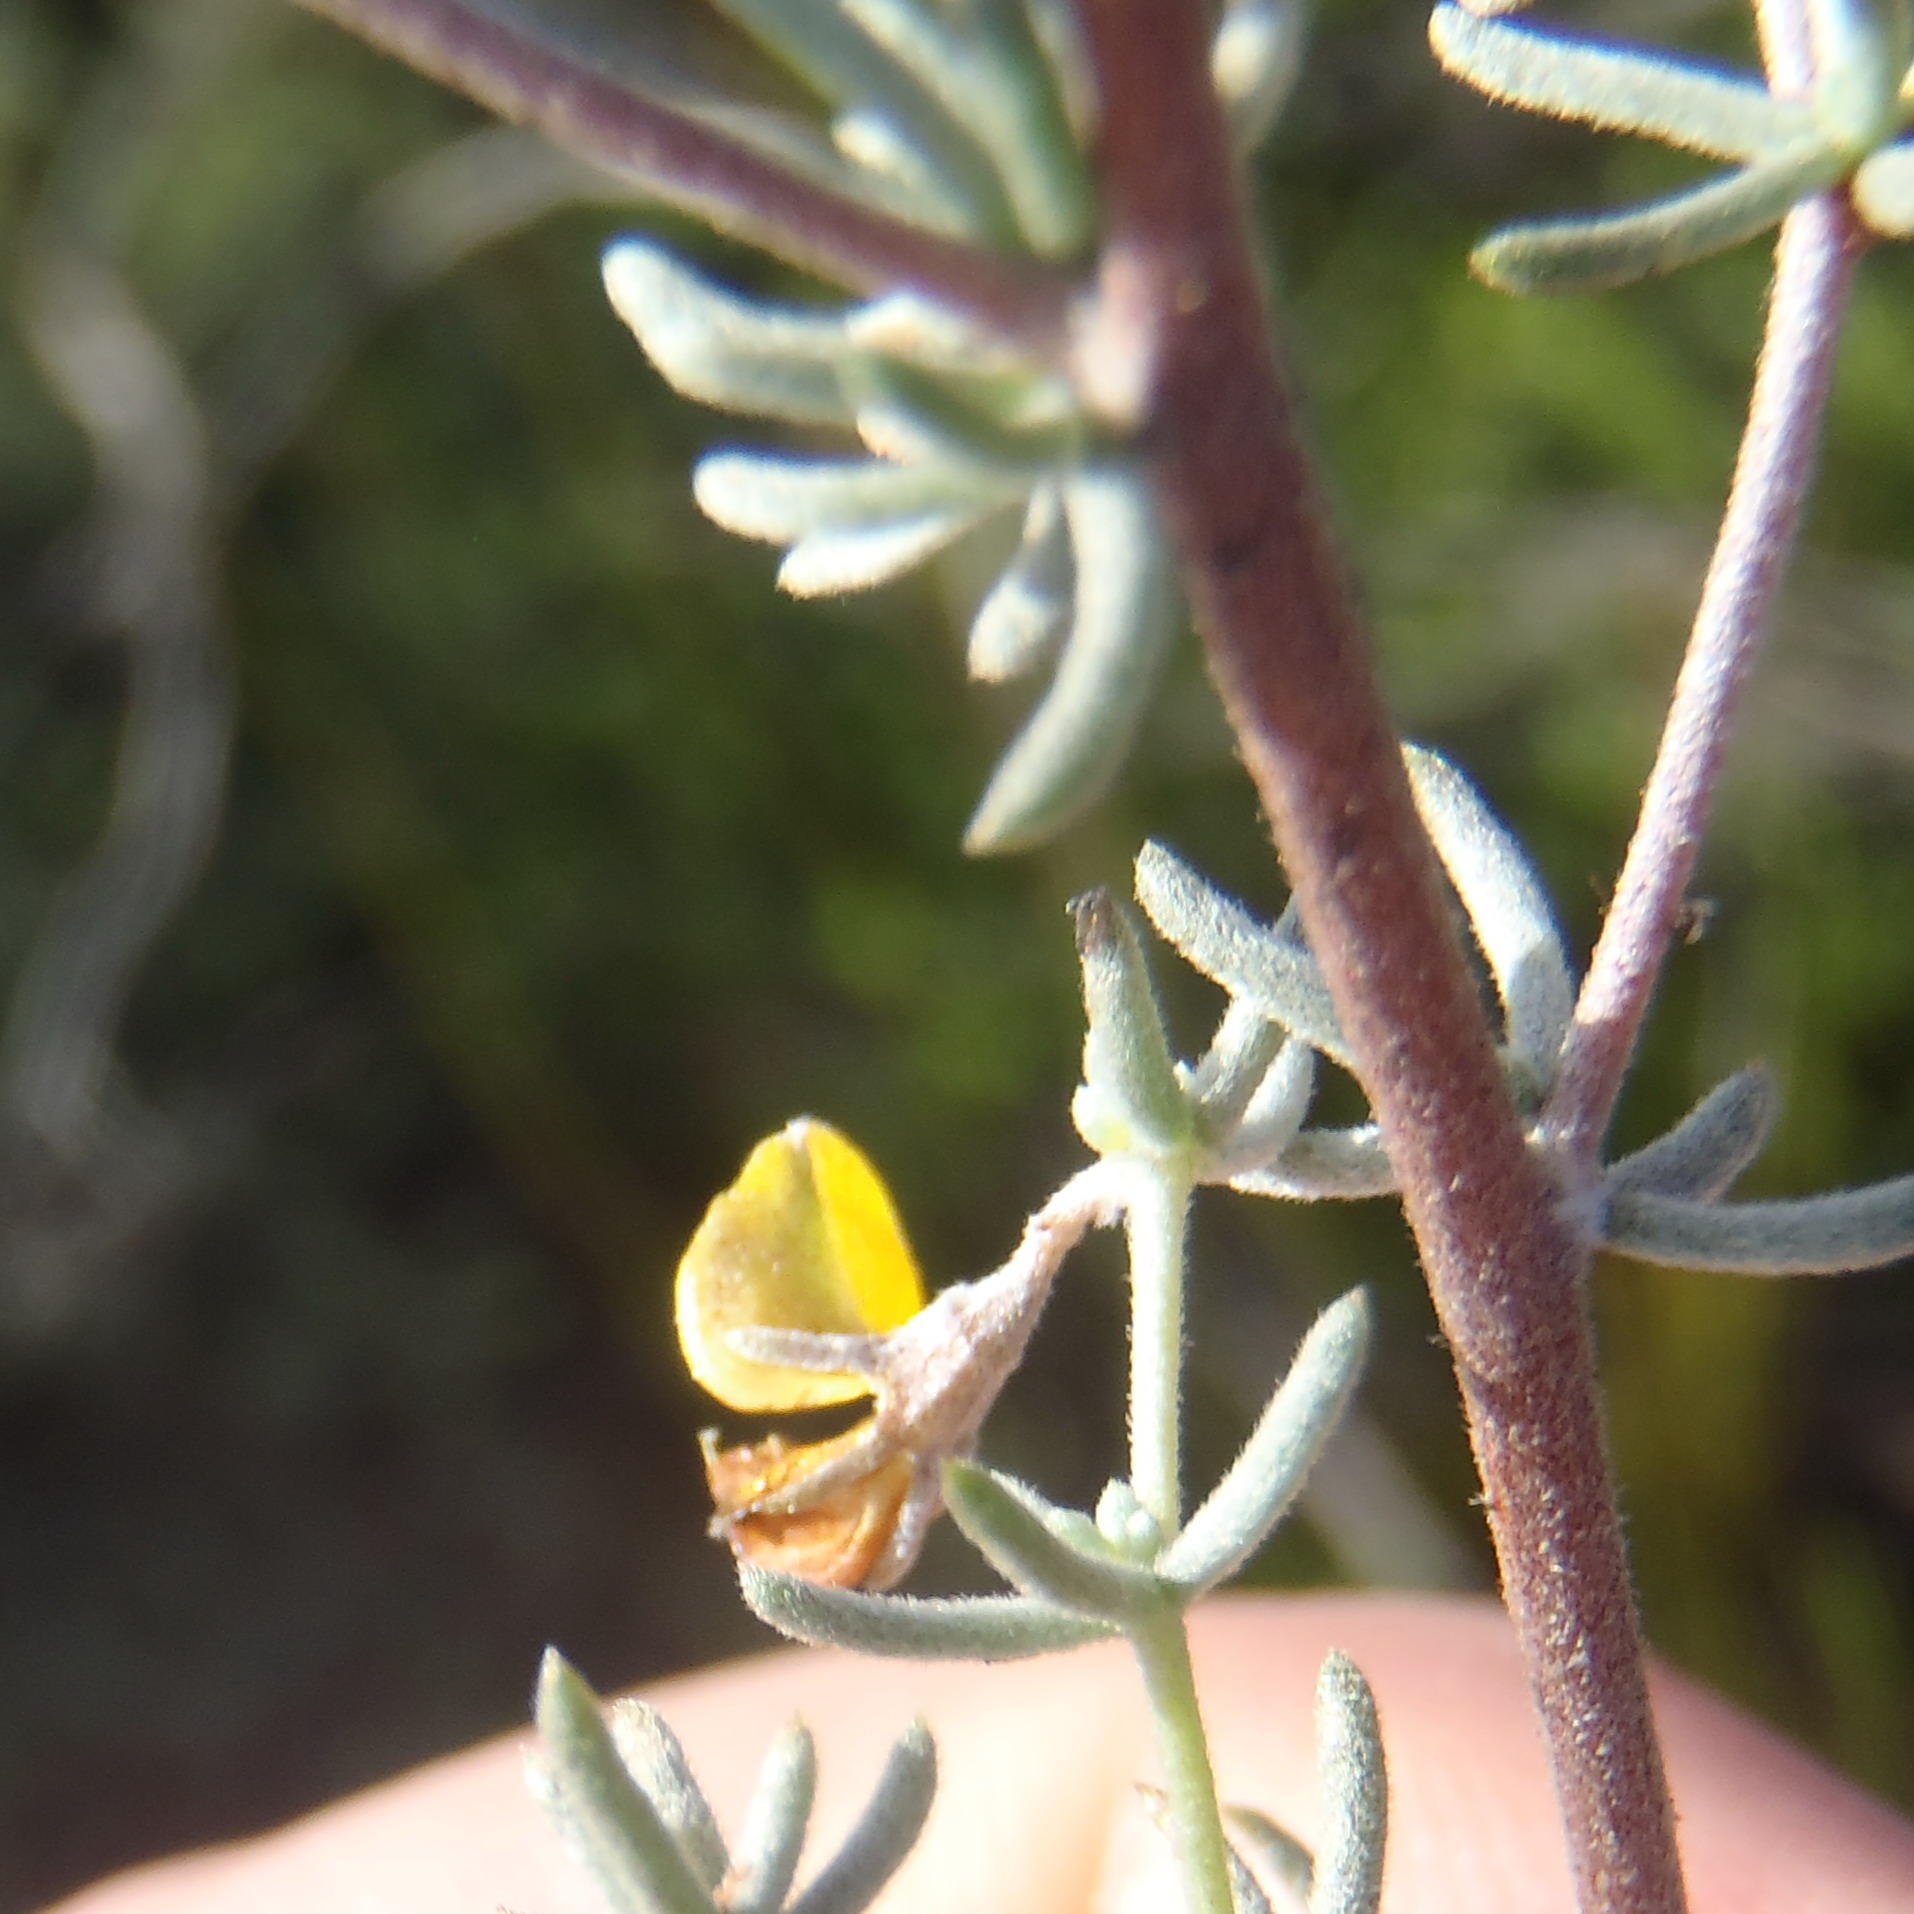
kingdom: Plantae
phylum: Tracheophyta
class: Magnoliopsida
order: Fabales
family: Fabaceae
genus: Aspalathus
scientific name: Aspalathus digitifolia
